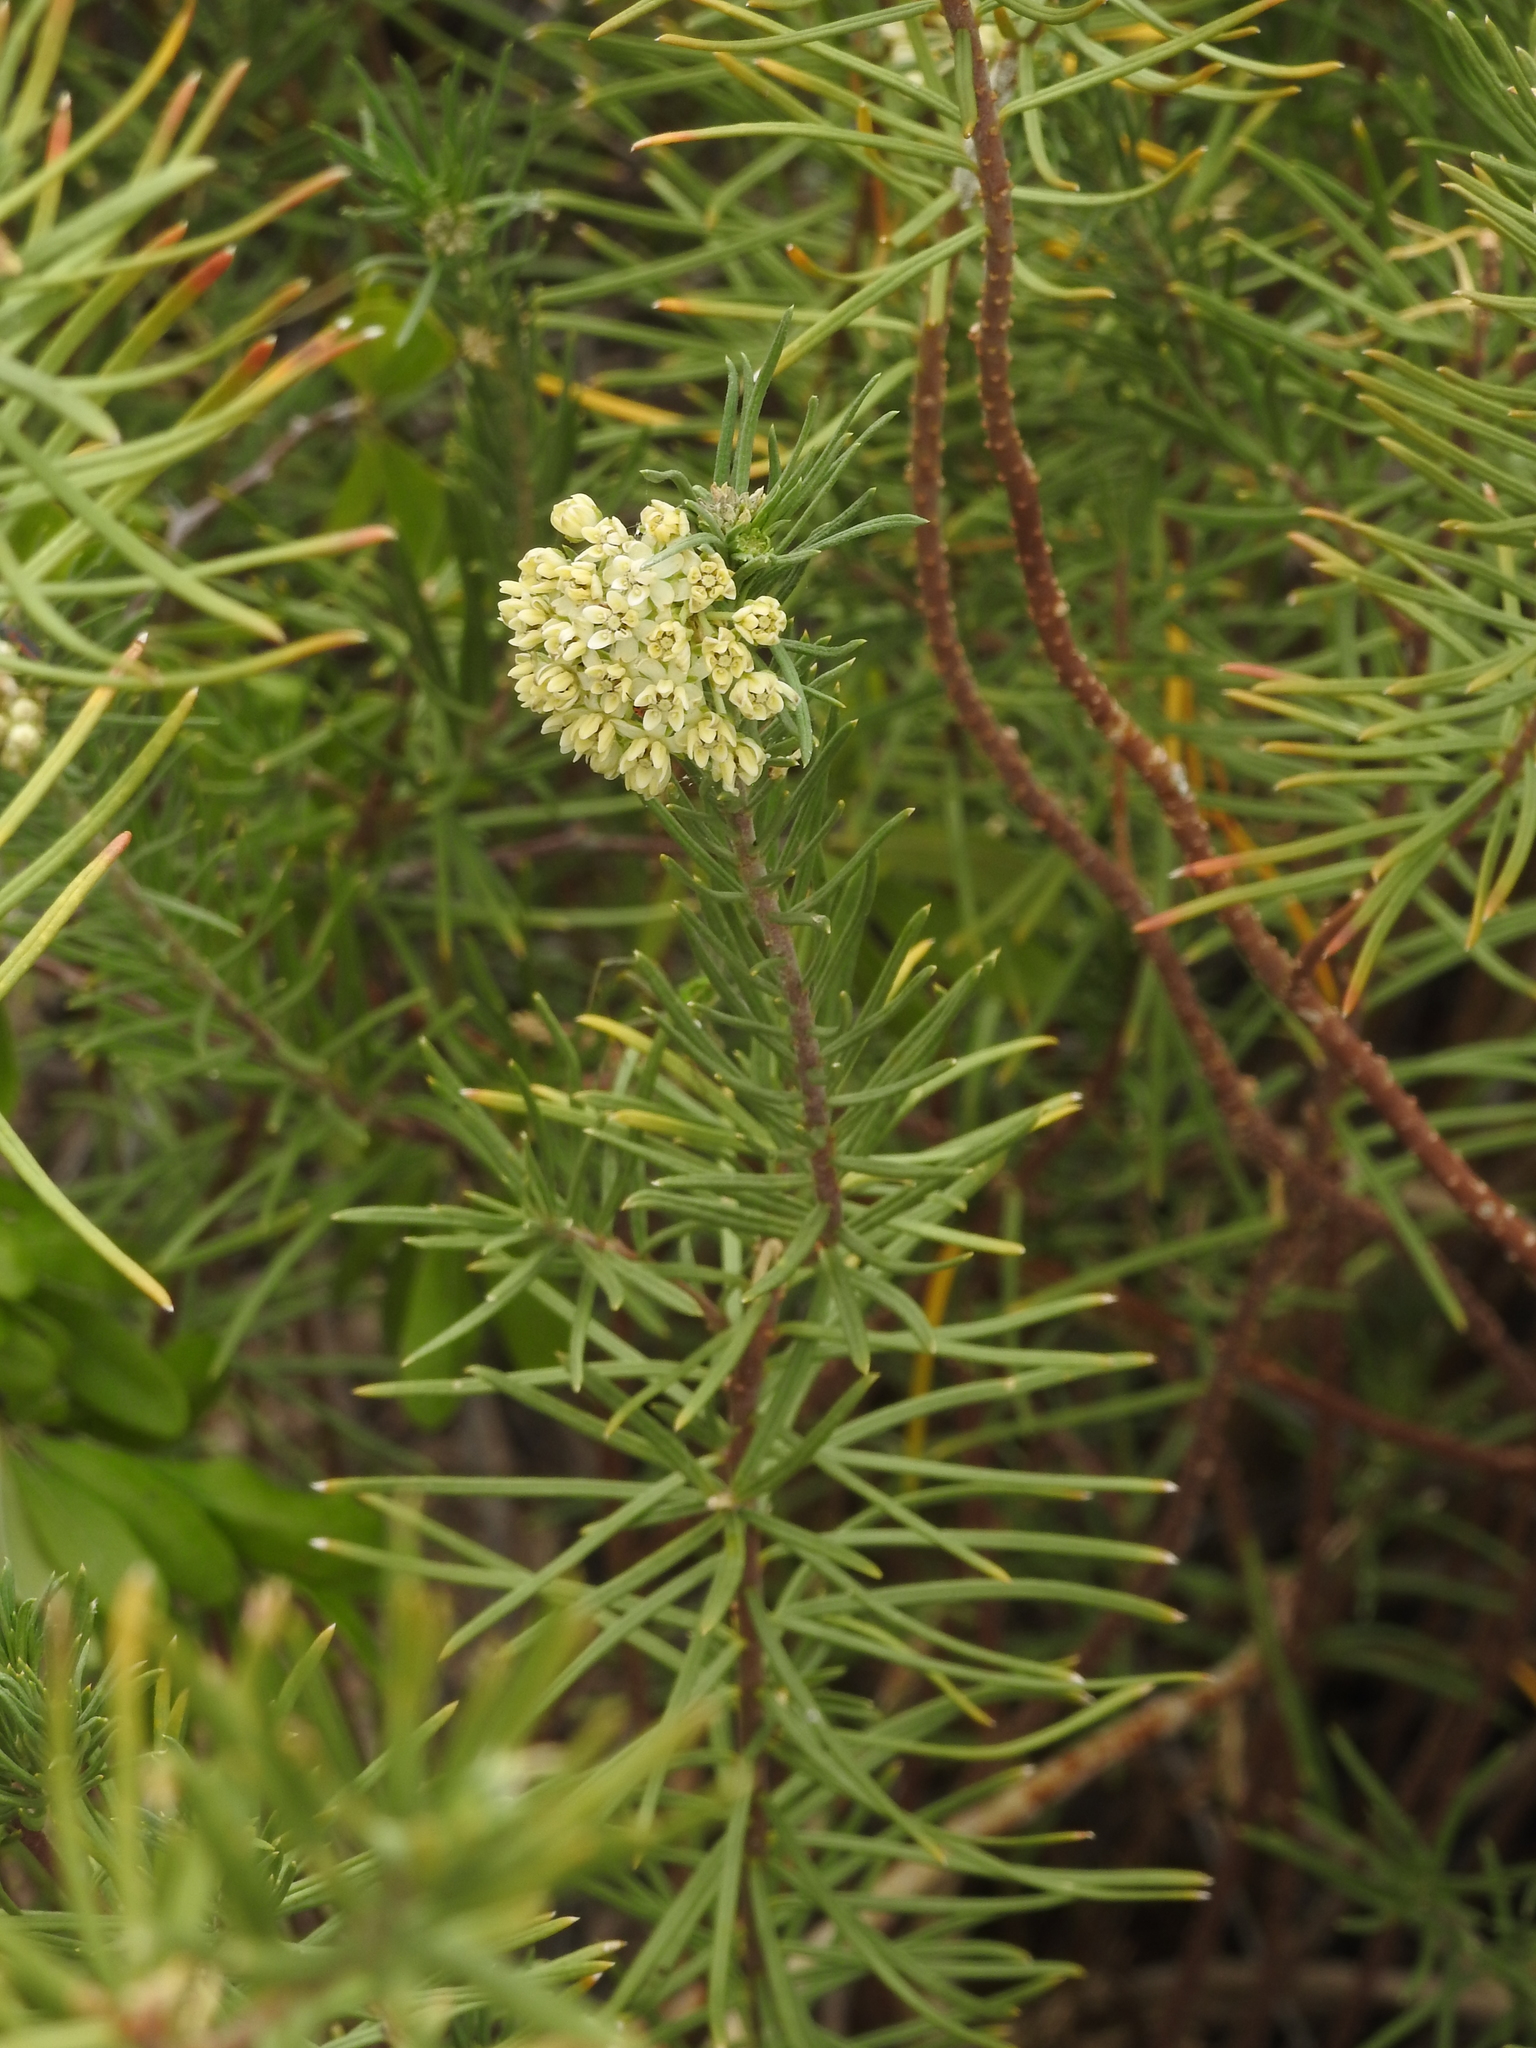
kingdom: Plantae
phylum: Tracheophyta
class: Magnoliopsida
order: Gentianales
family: Apocynaceae
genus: Asclepias
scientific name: Asclepias linaria
